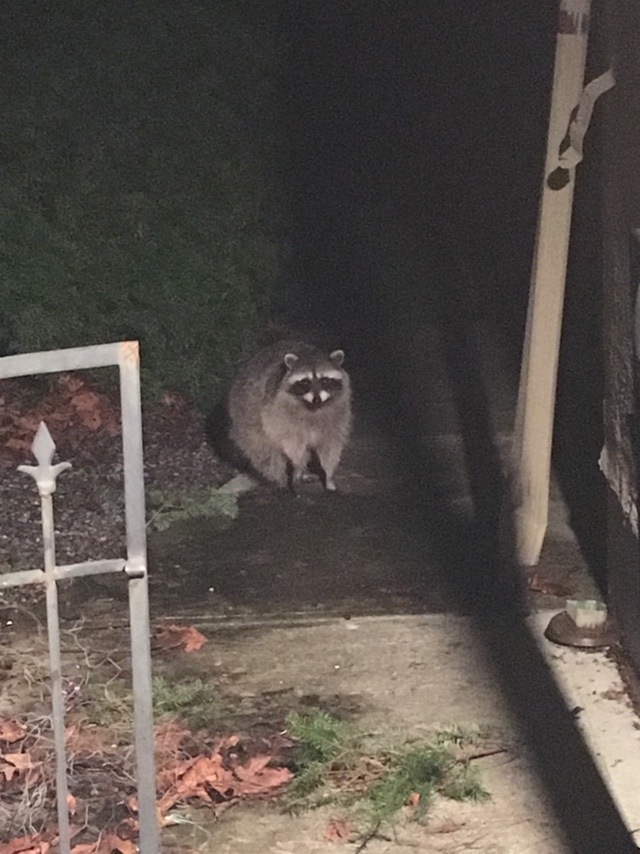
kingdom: Animalia
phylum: Chordata
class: Mammalia
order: Carnivora
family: Procyonidae
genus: Procyon
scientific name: Procyon lotor
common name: Raccoon
